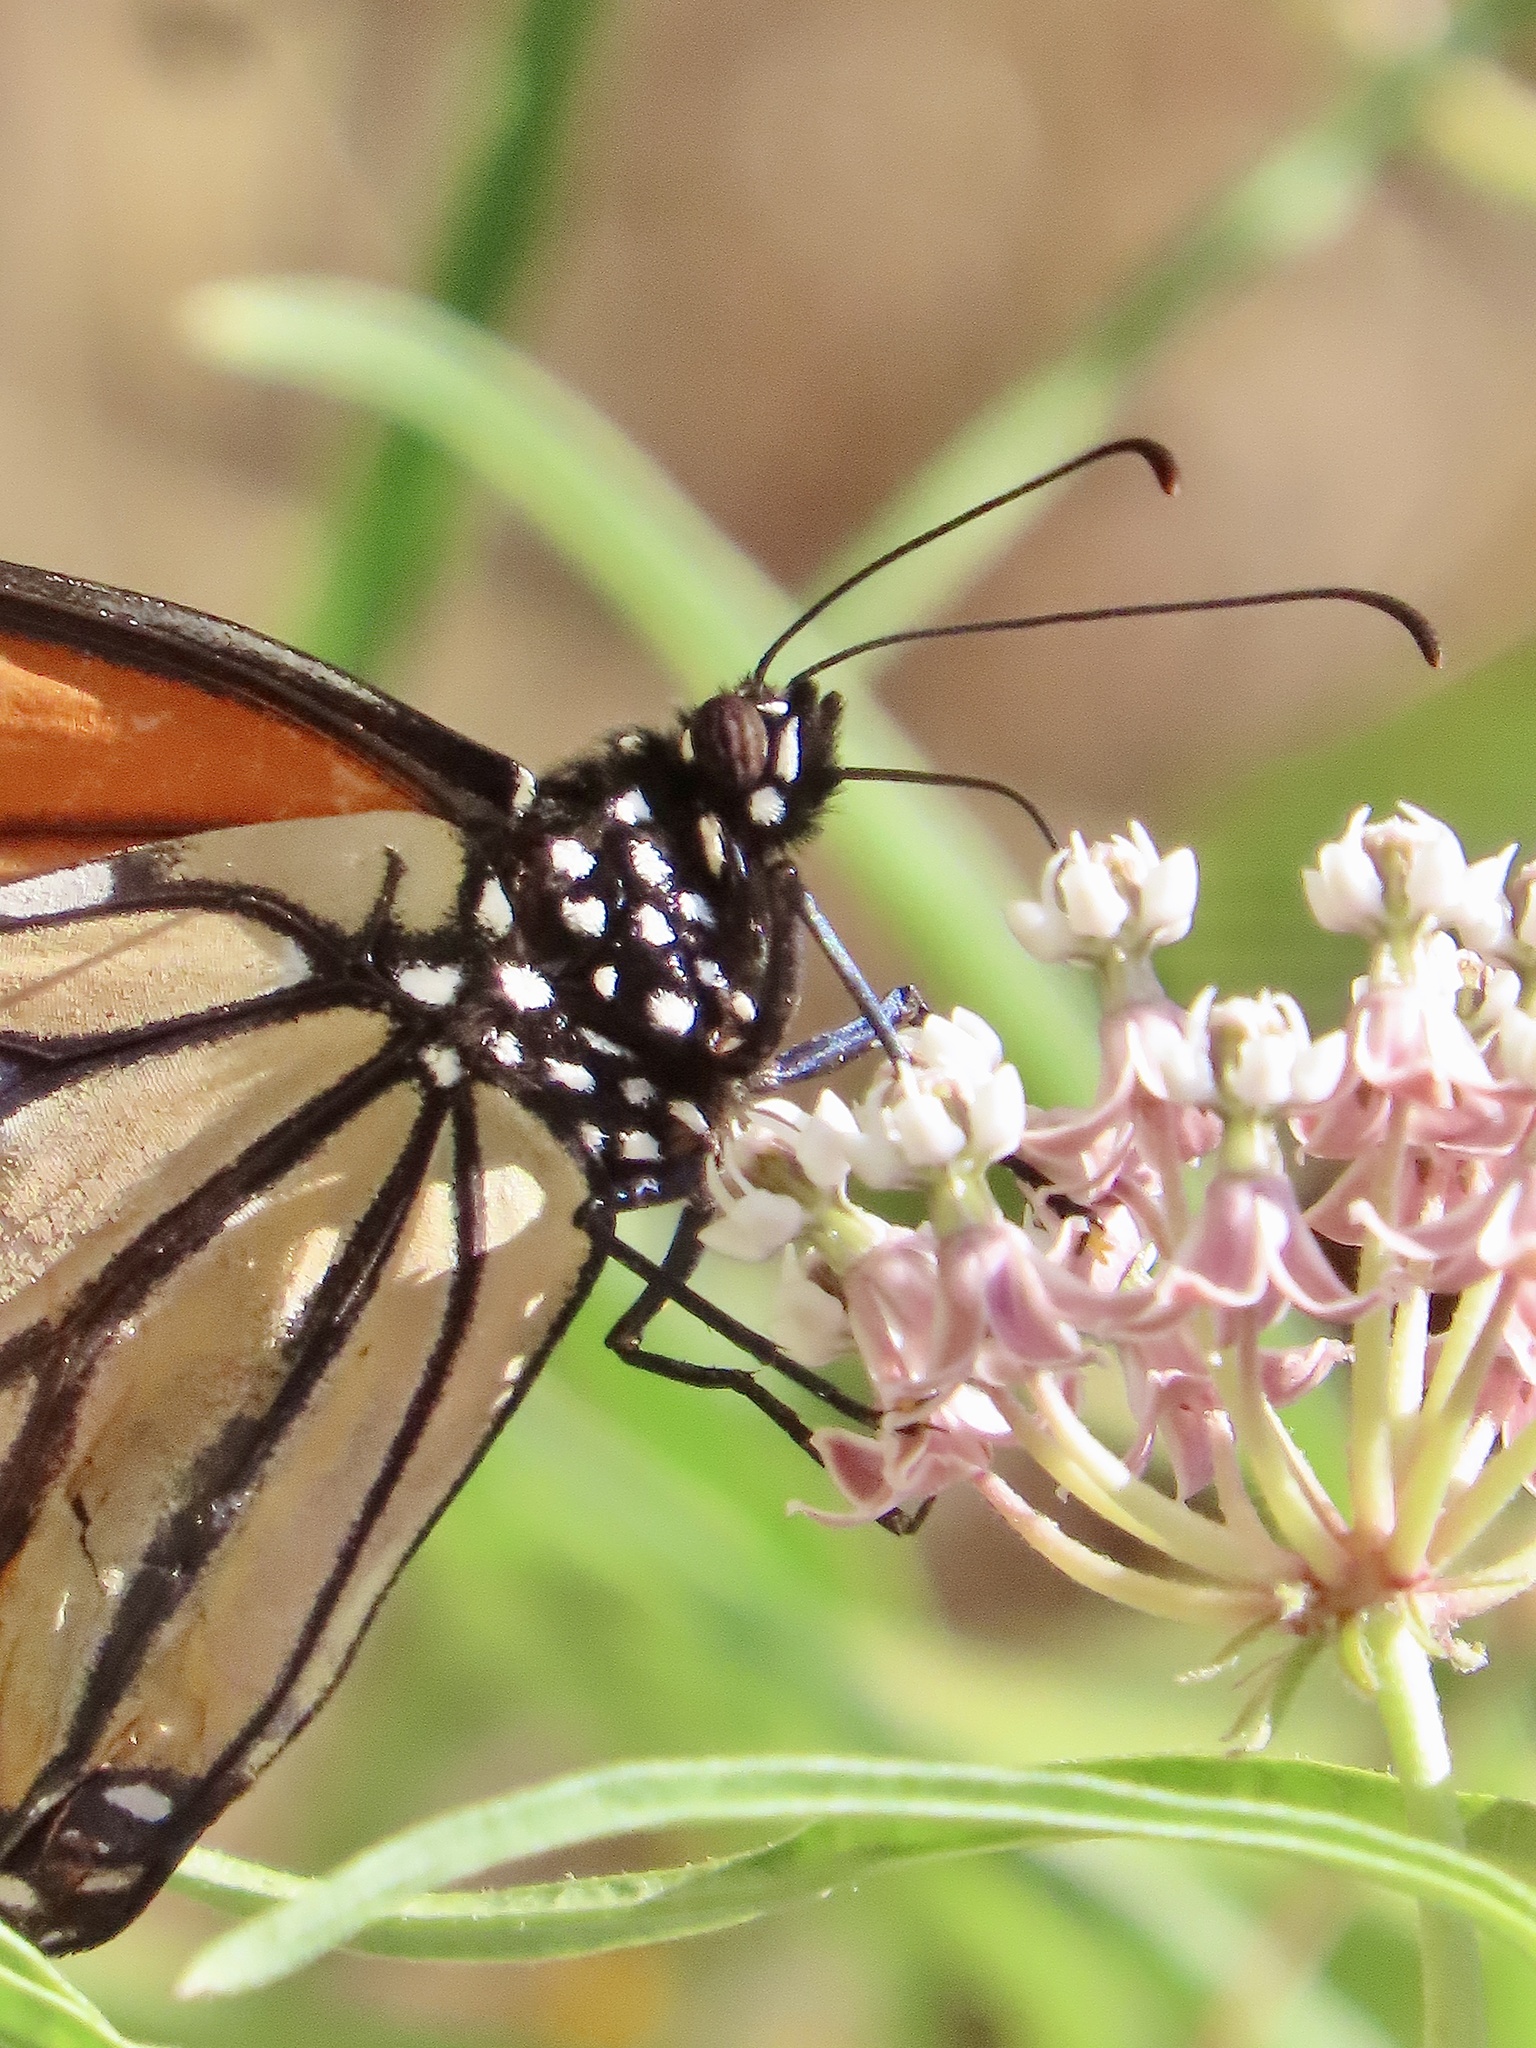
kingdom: Animalia
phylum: Arthropoda
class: Insecta
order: Lepidoptera
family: Nymphalidae
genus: Danaus
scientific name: Danaus plexippus
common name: Monarch
